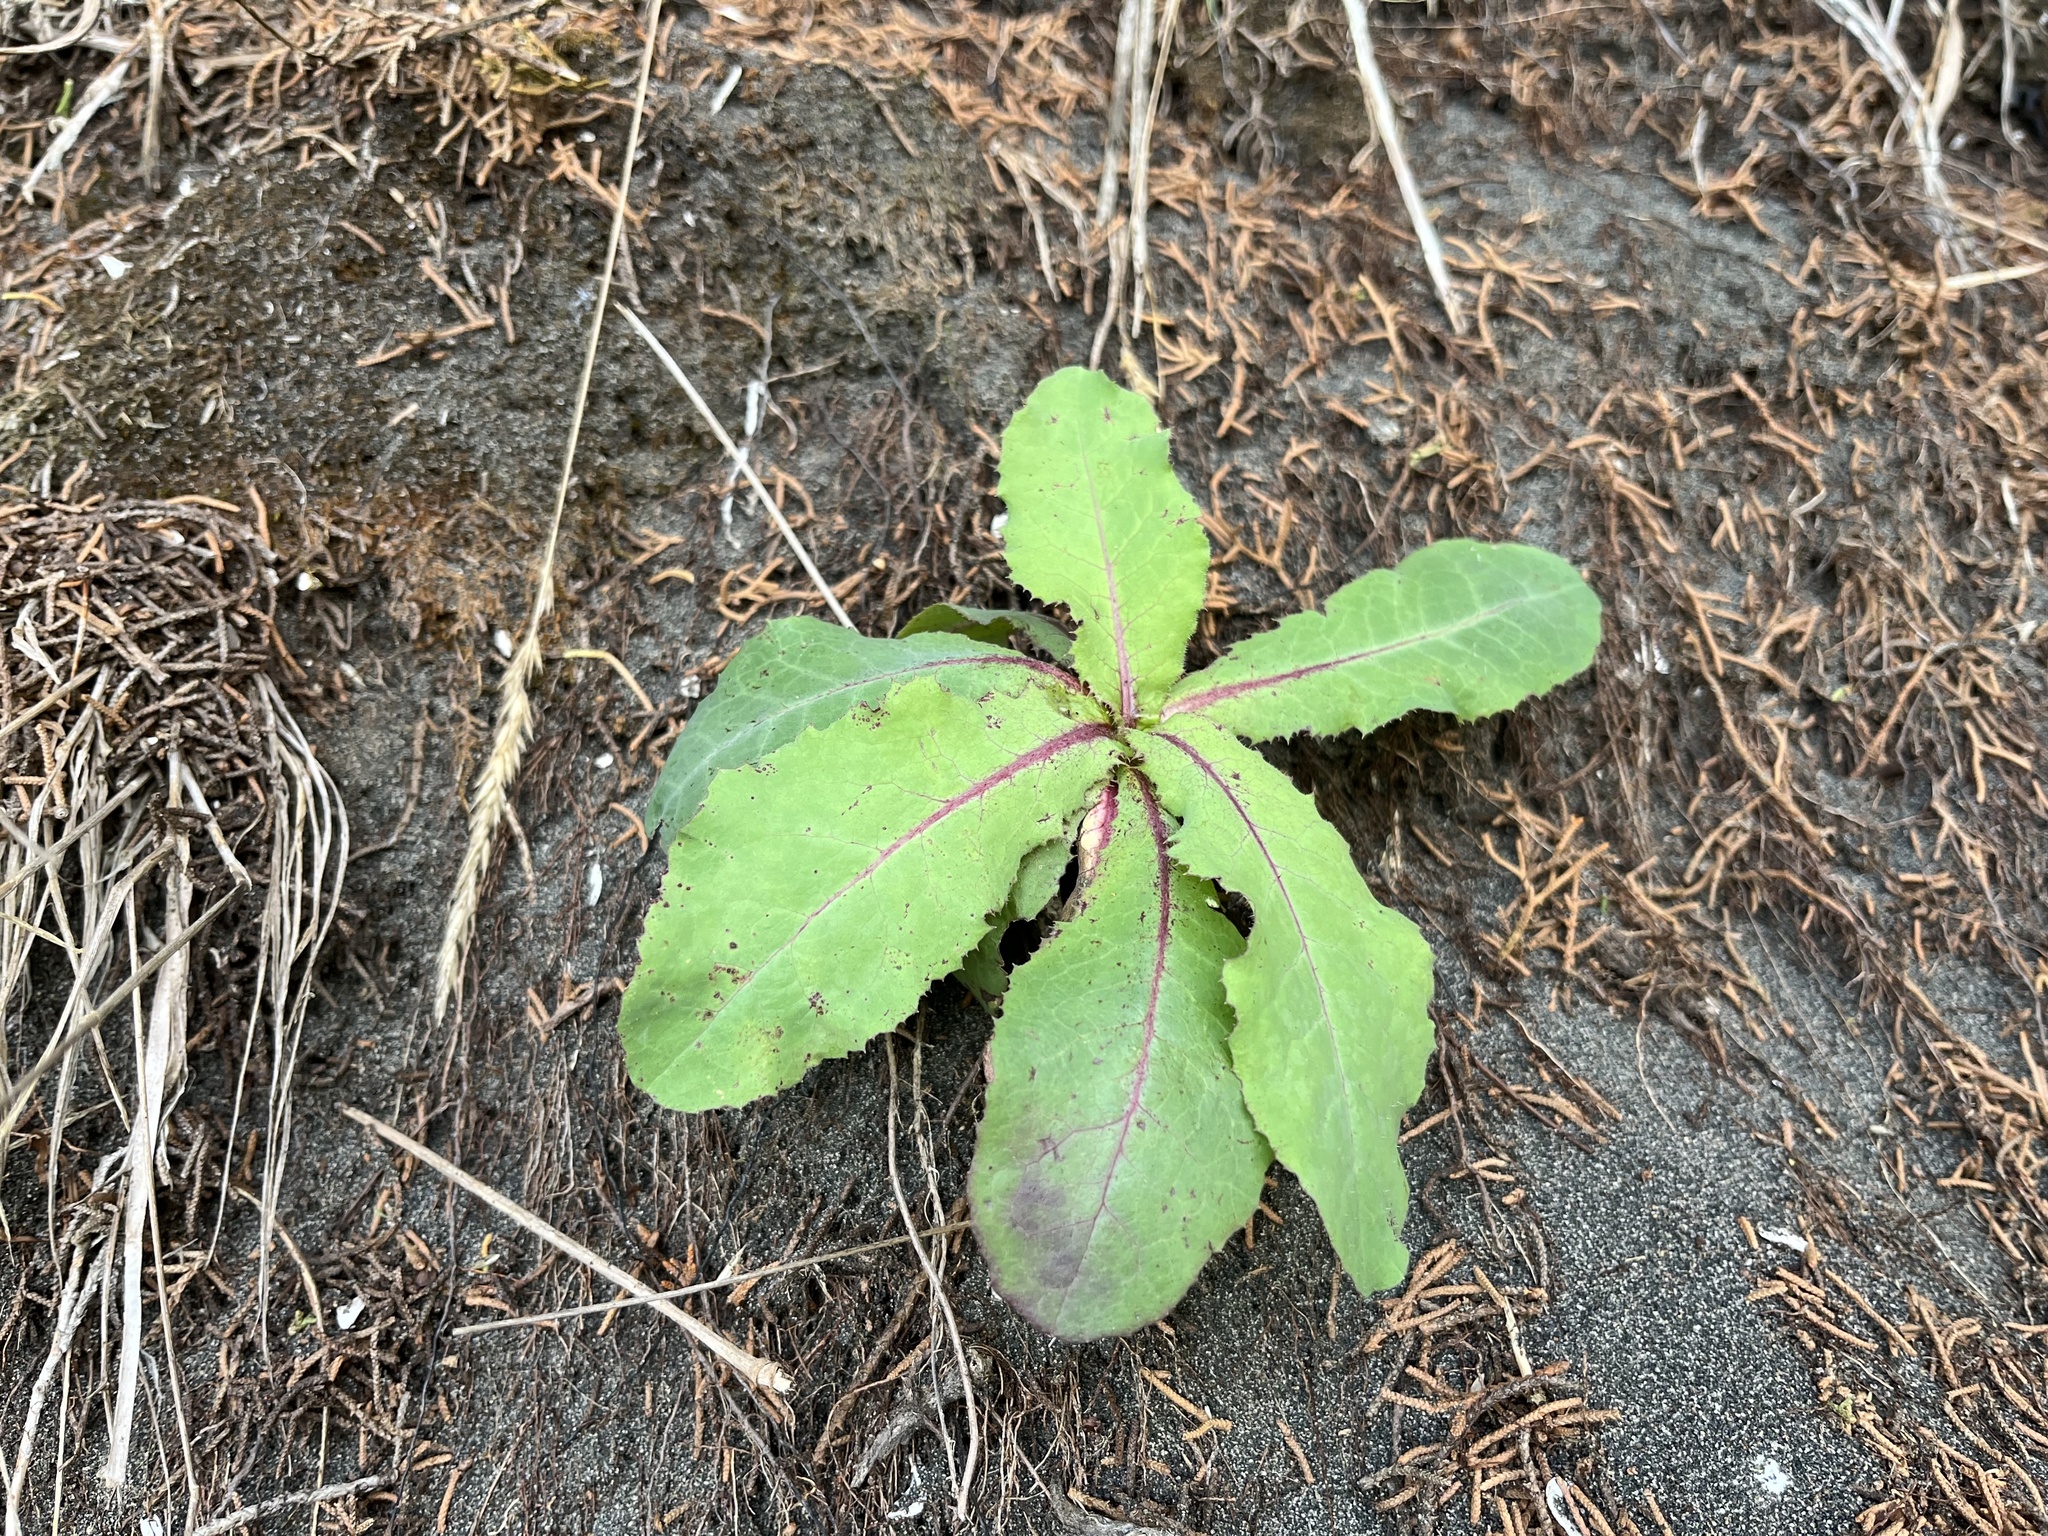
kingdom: Plantae
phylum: Tracheophyta
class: Magnoliopsida
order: Asterales
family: Asteraceae
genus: Lactuca
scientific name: Lactuca virosa
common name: Great lettuce
